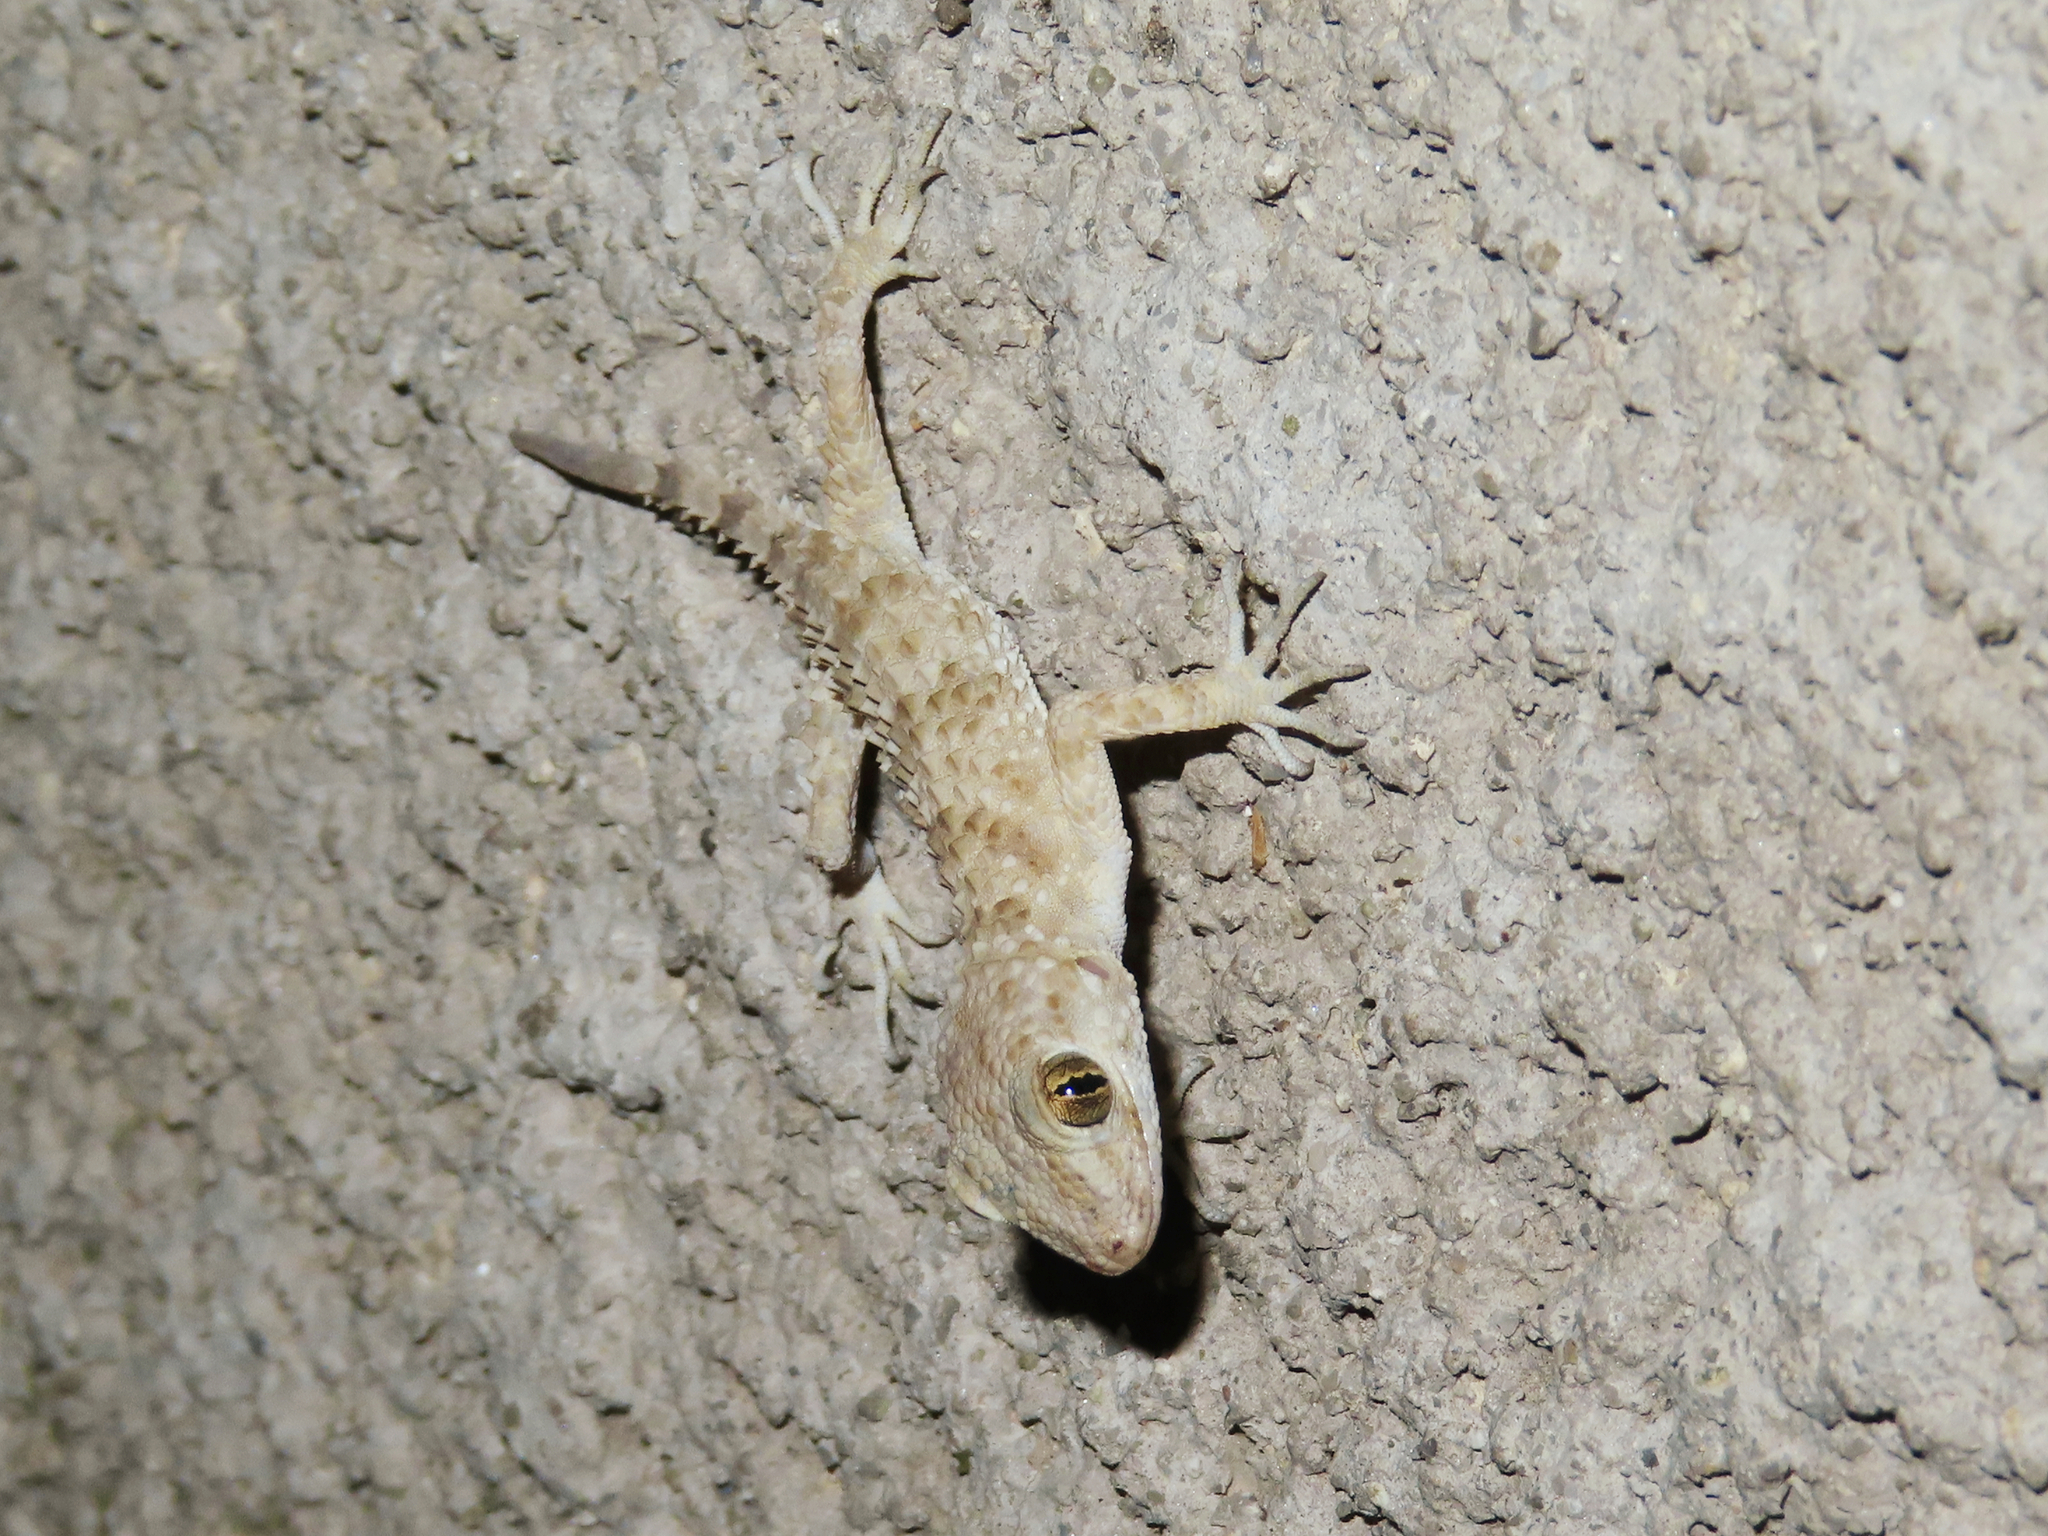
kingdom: Animalia
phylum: Chordata
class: Squamata
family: Gekkonidae
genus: Tenuidactylus
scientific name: Tenuidactylus caspius
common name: Caspian bent-toed gecko
